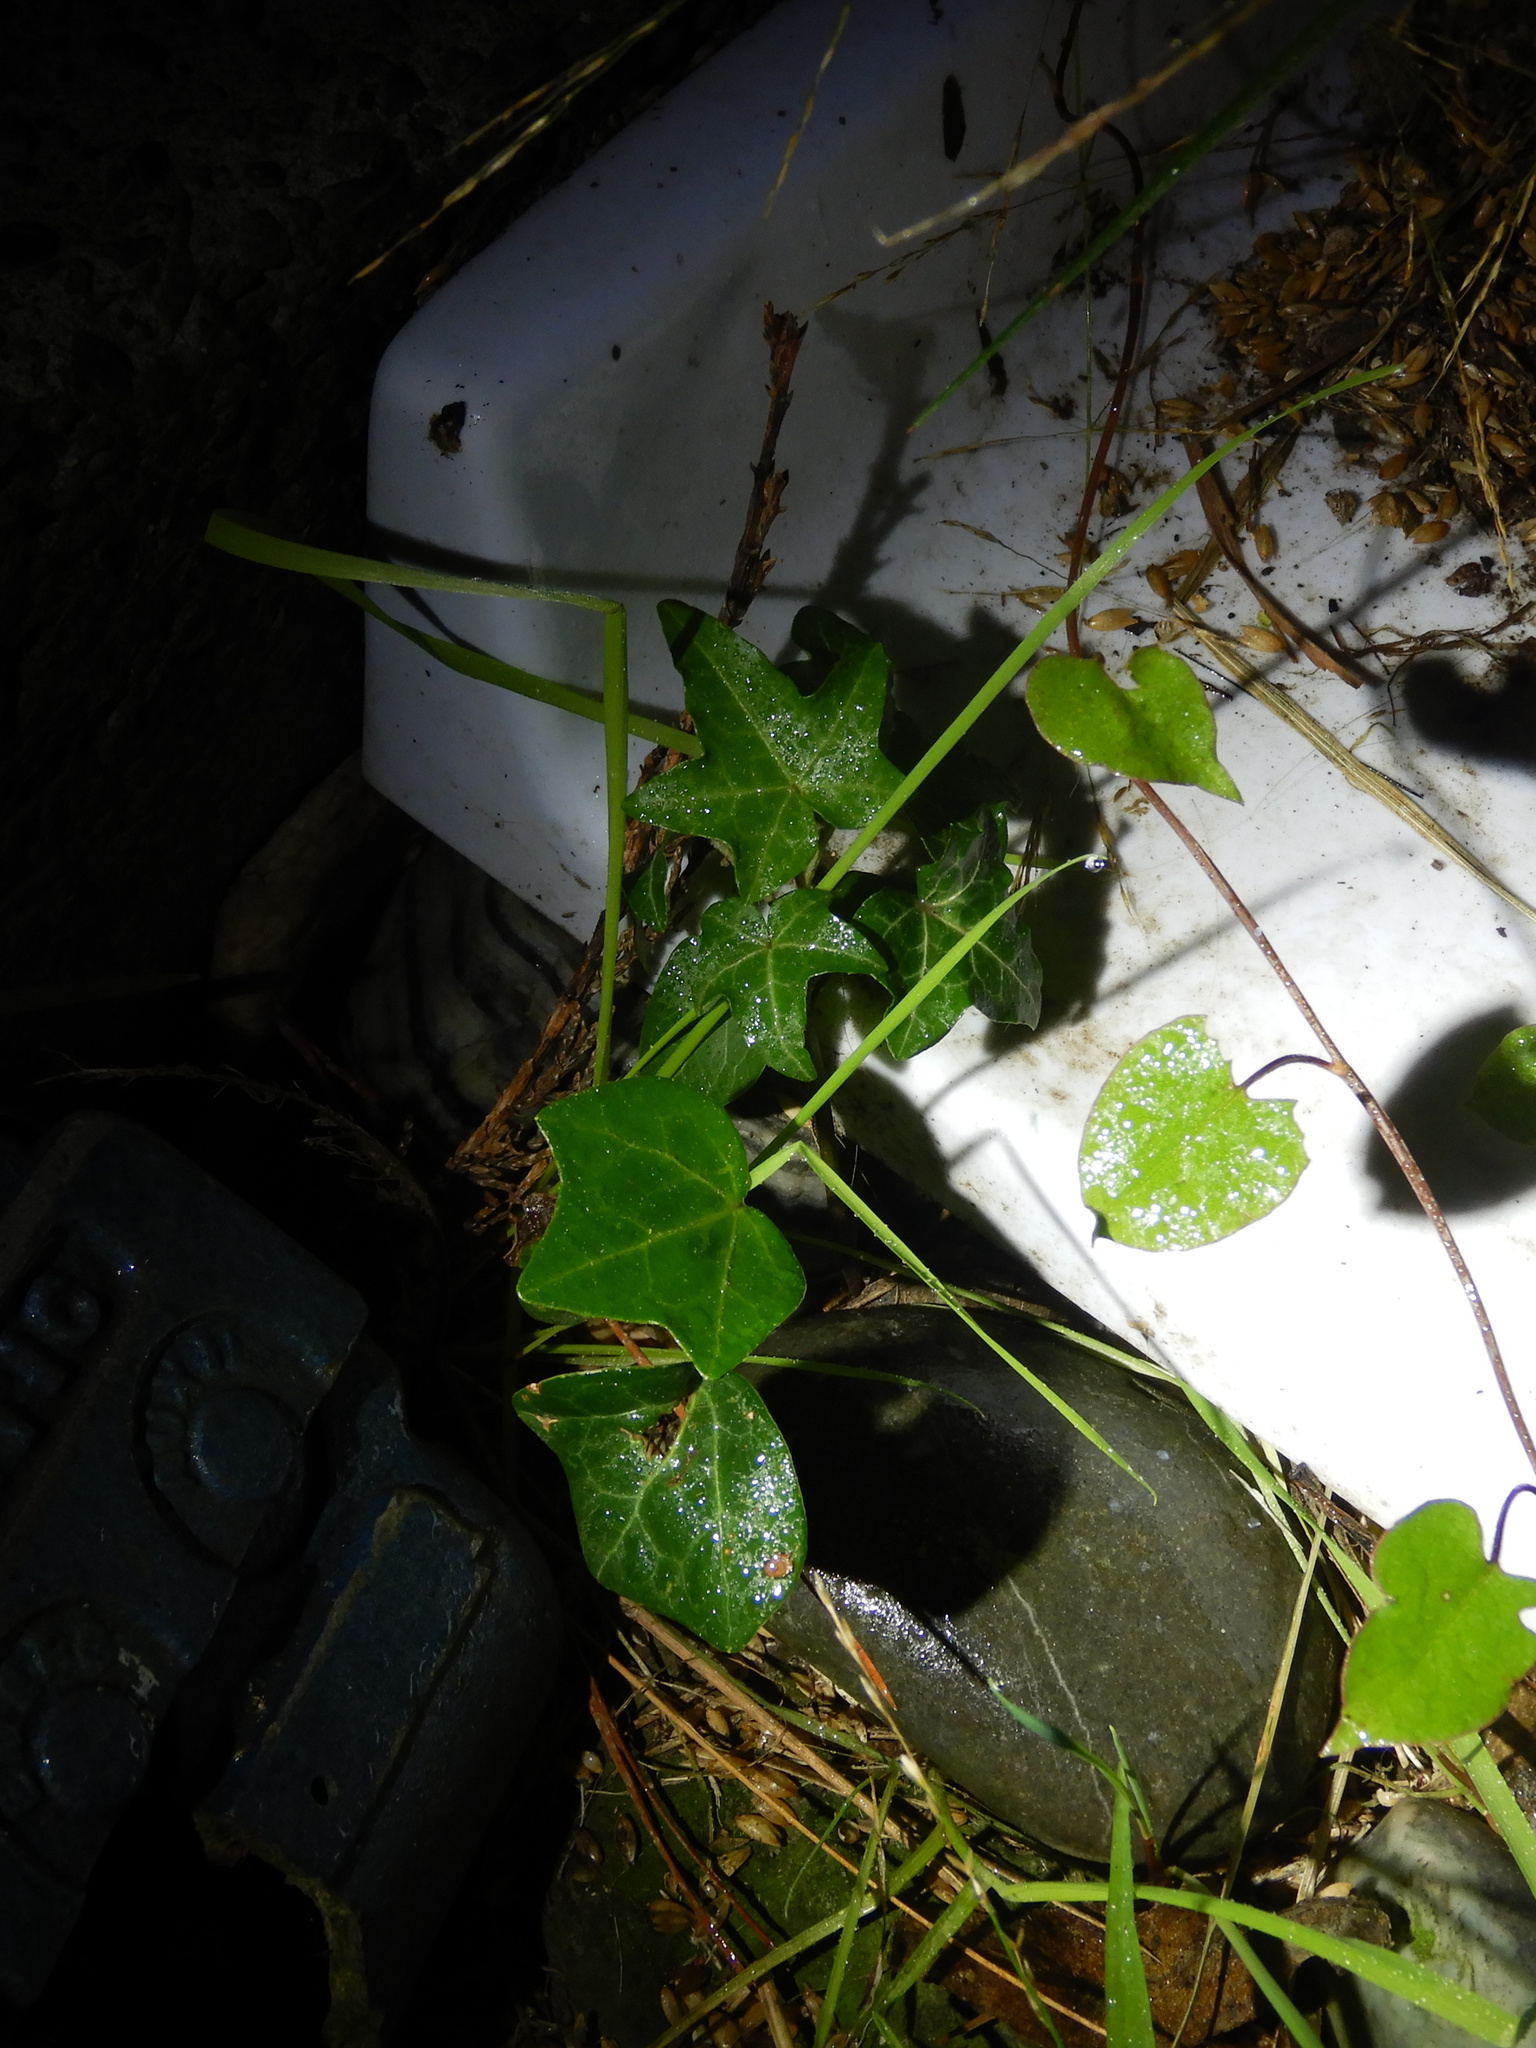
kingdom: Plantae
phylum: Tracheophyta
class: Magnoliopsida
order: Apiales
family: Araliaceae
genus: Hedera
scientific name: Hedera helix
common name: Ivy
